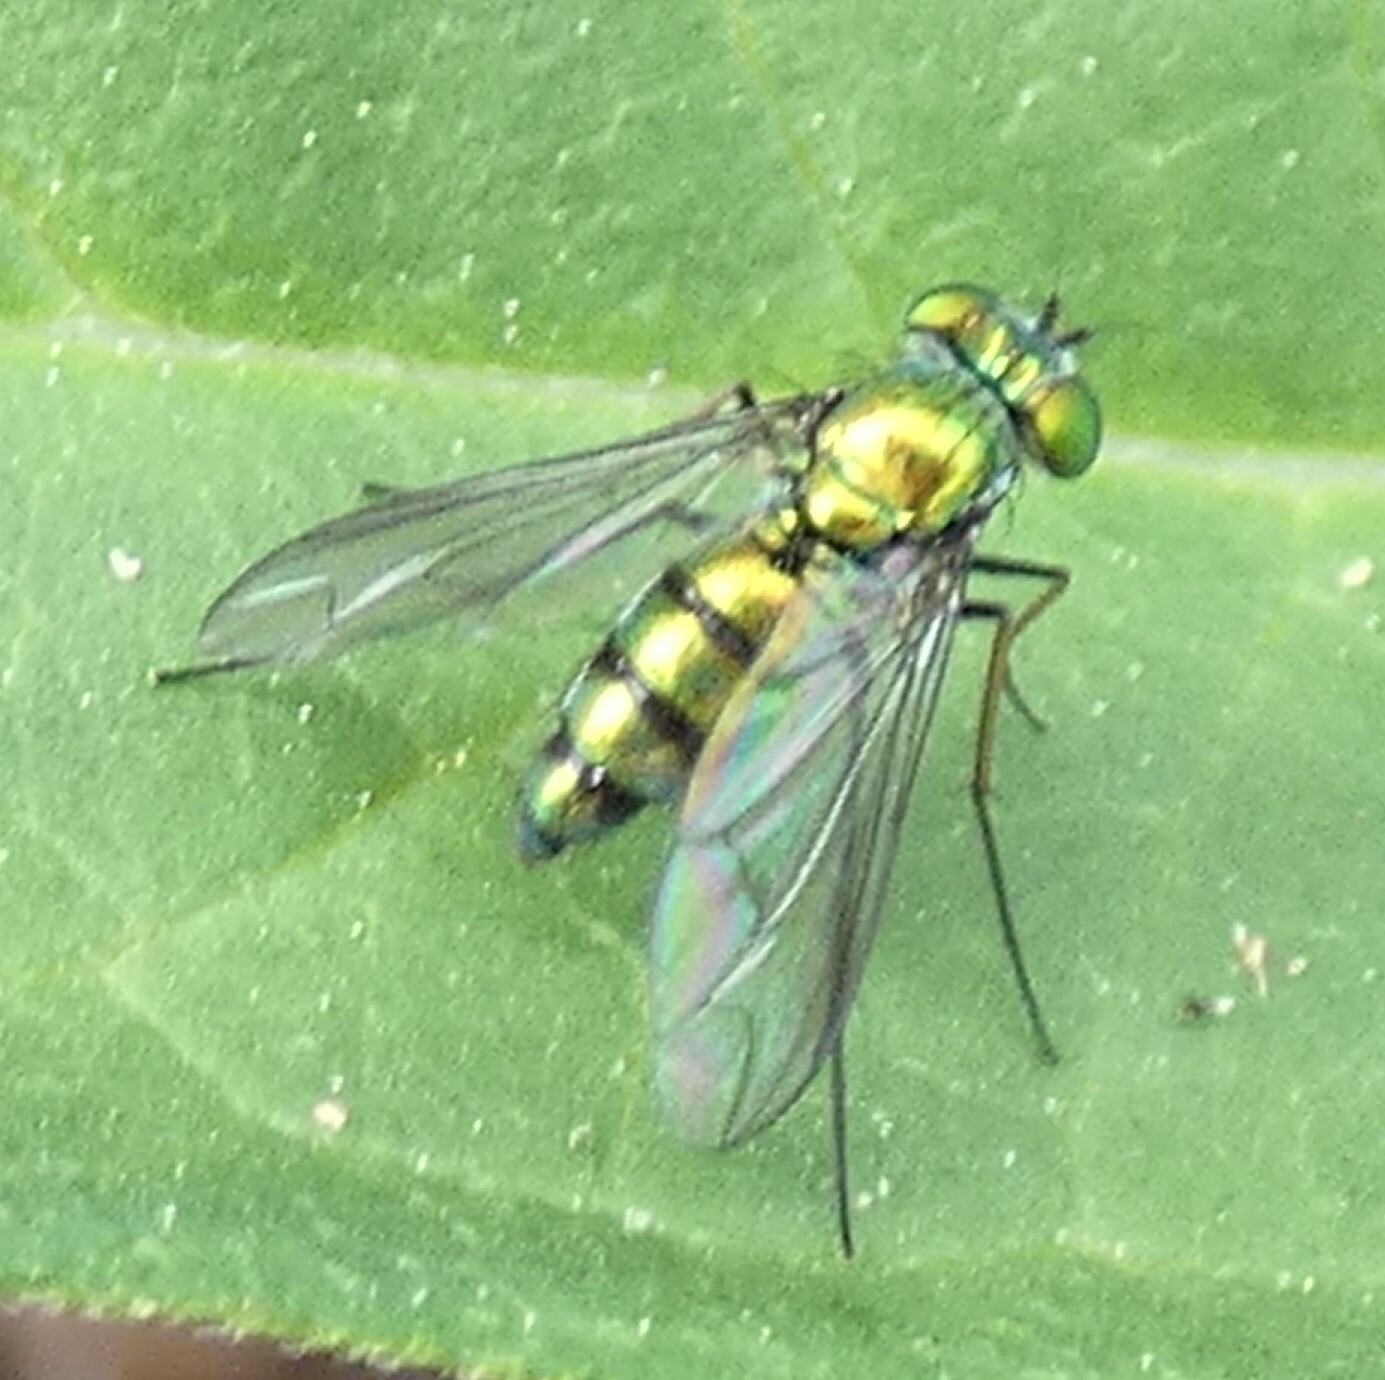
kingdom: Animalia
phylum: Arthropoda
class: Insecta
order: Diptera
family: Dolichopodidae
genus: Condylostylus
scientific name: Condylostylus longicornis
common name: Long-legged fly
